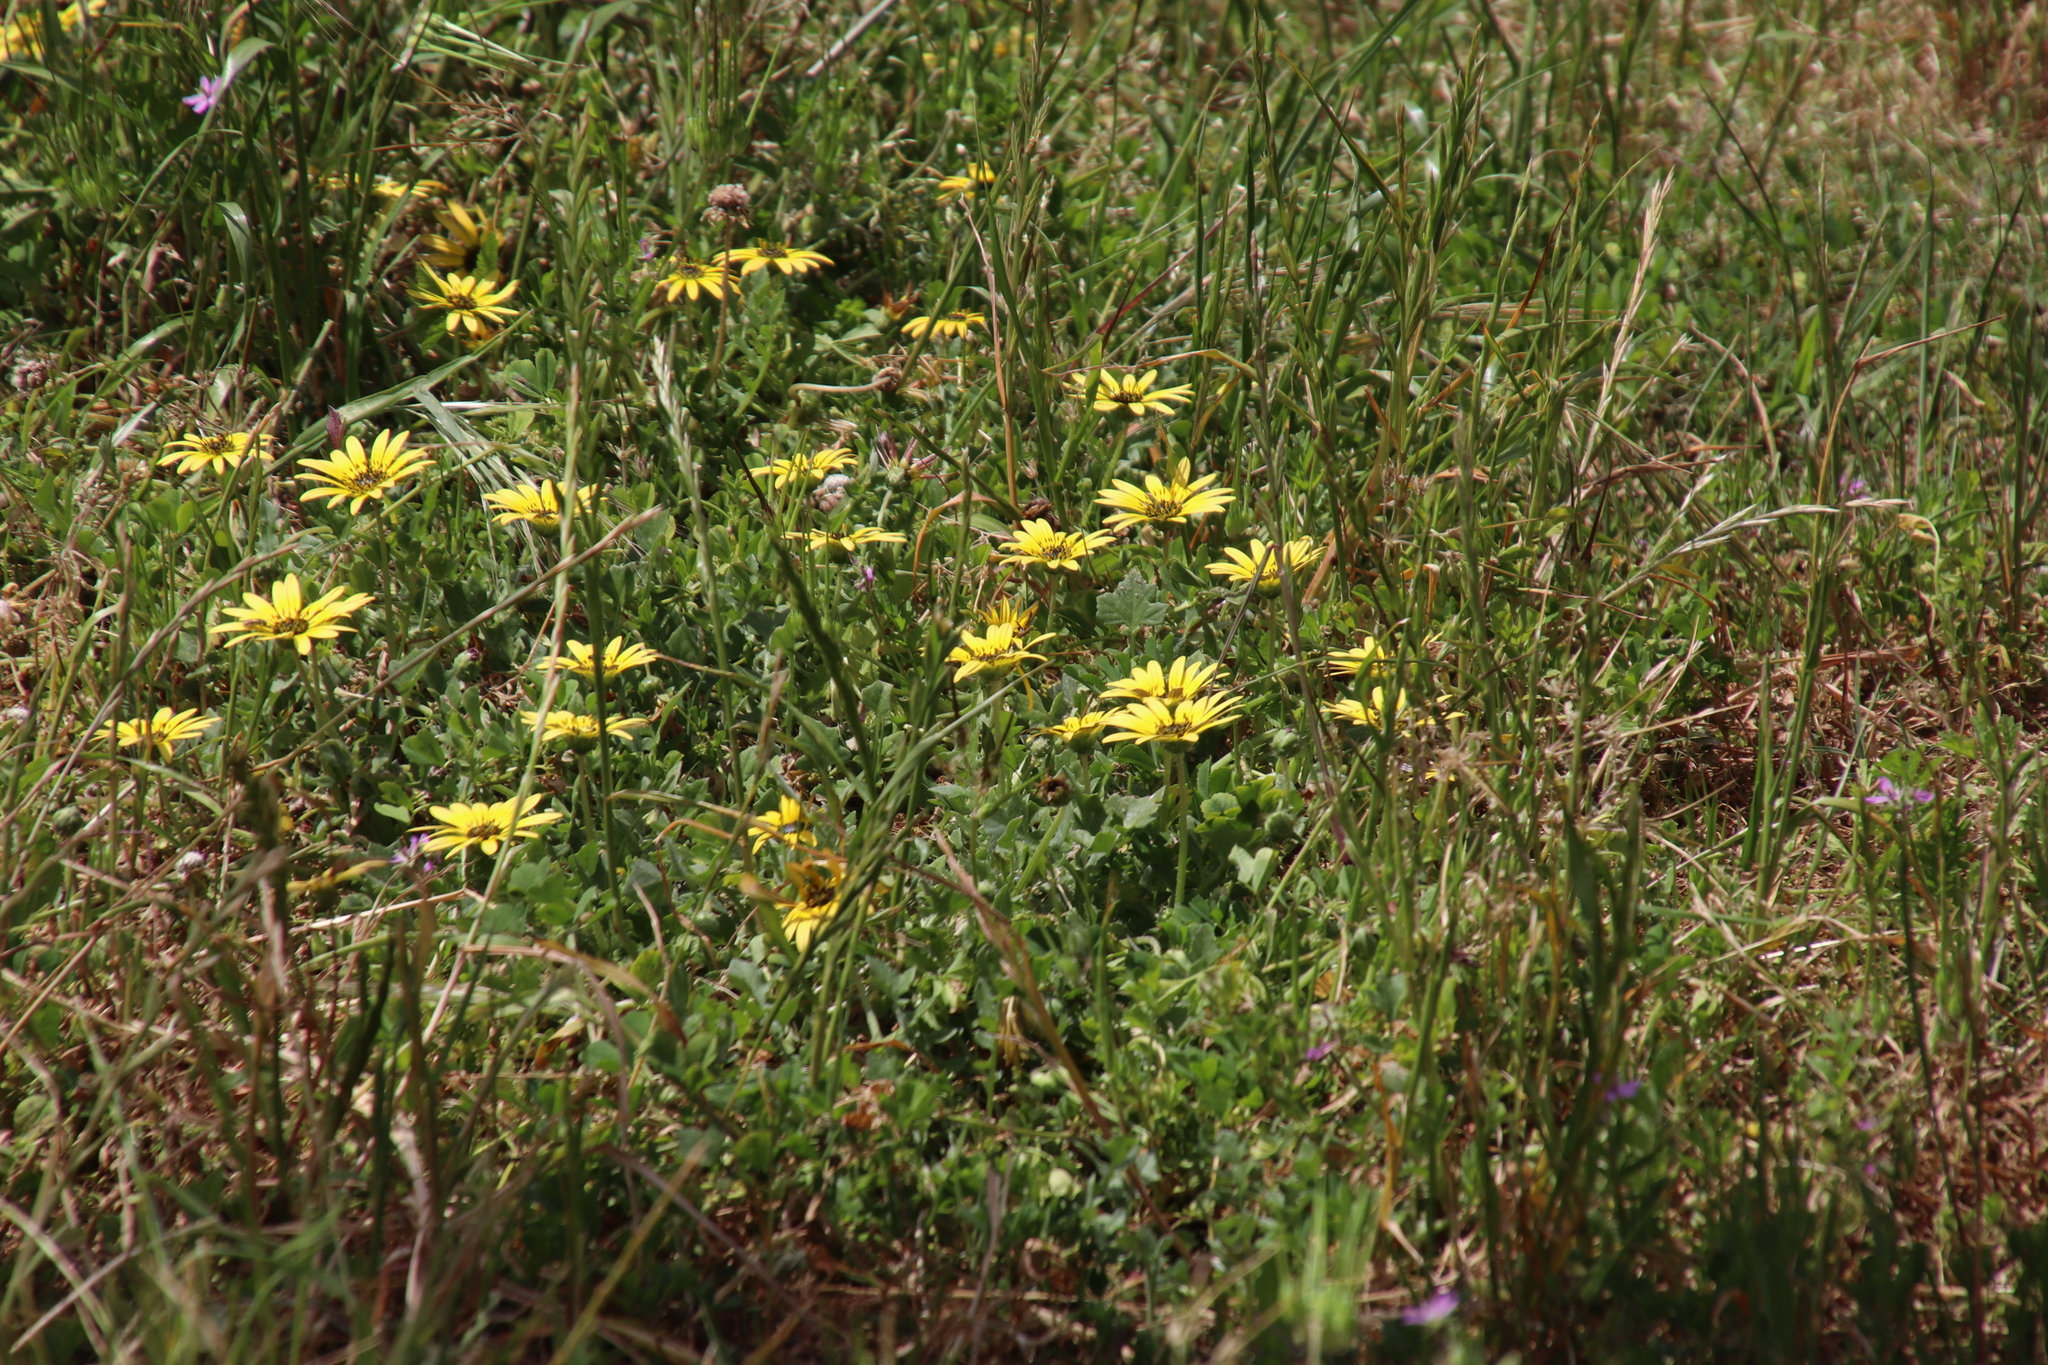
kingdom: Plantae
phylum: Tracheophyta
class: Magnoliopsida
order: Asterales
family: Asteraceae
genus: Arctotheca
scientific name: Arctotheca calendula
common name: Capeweed
